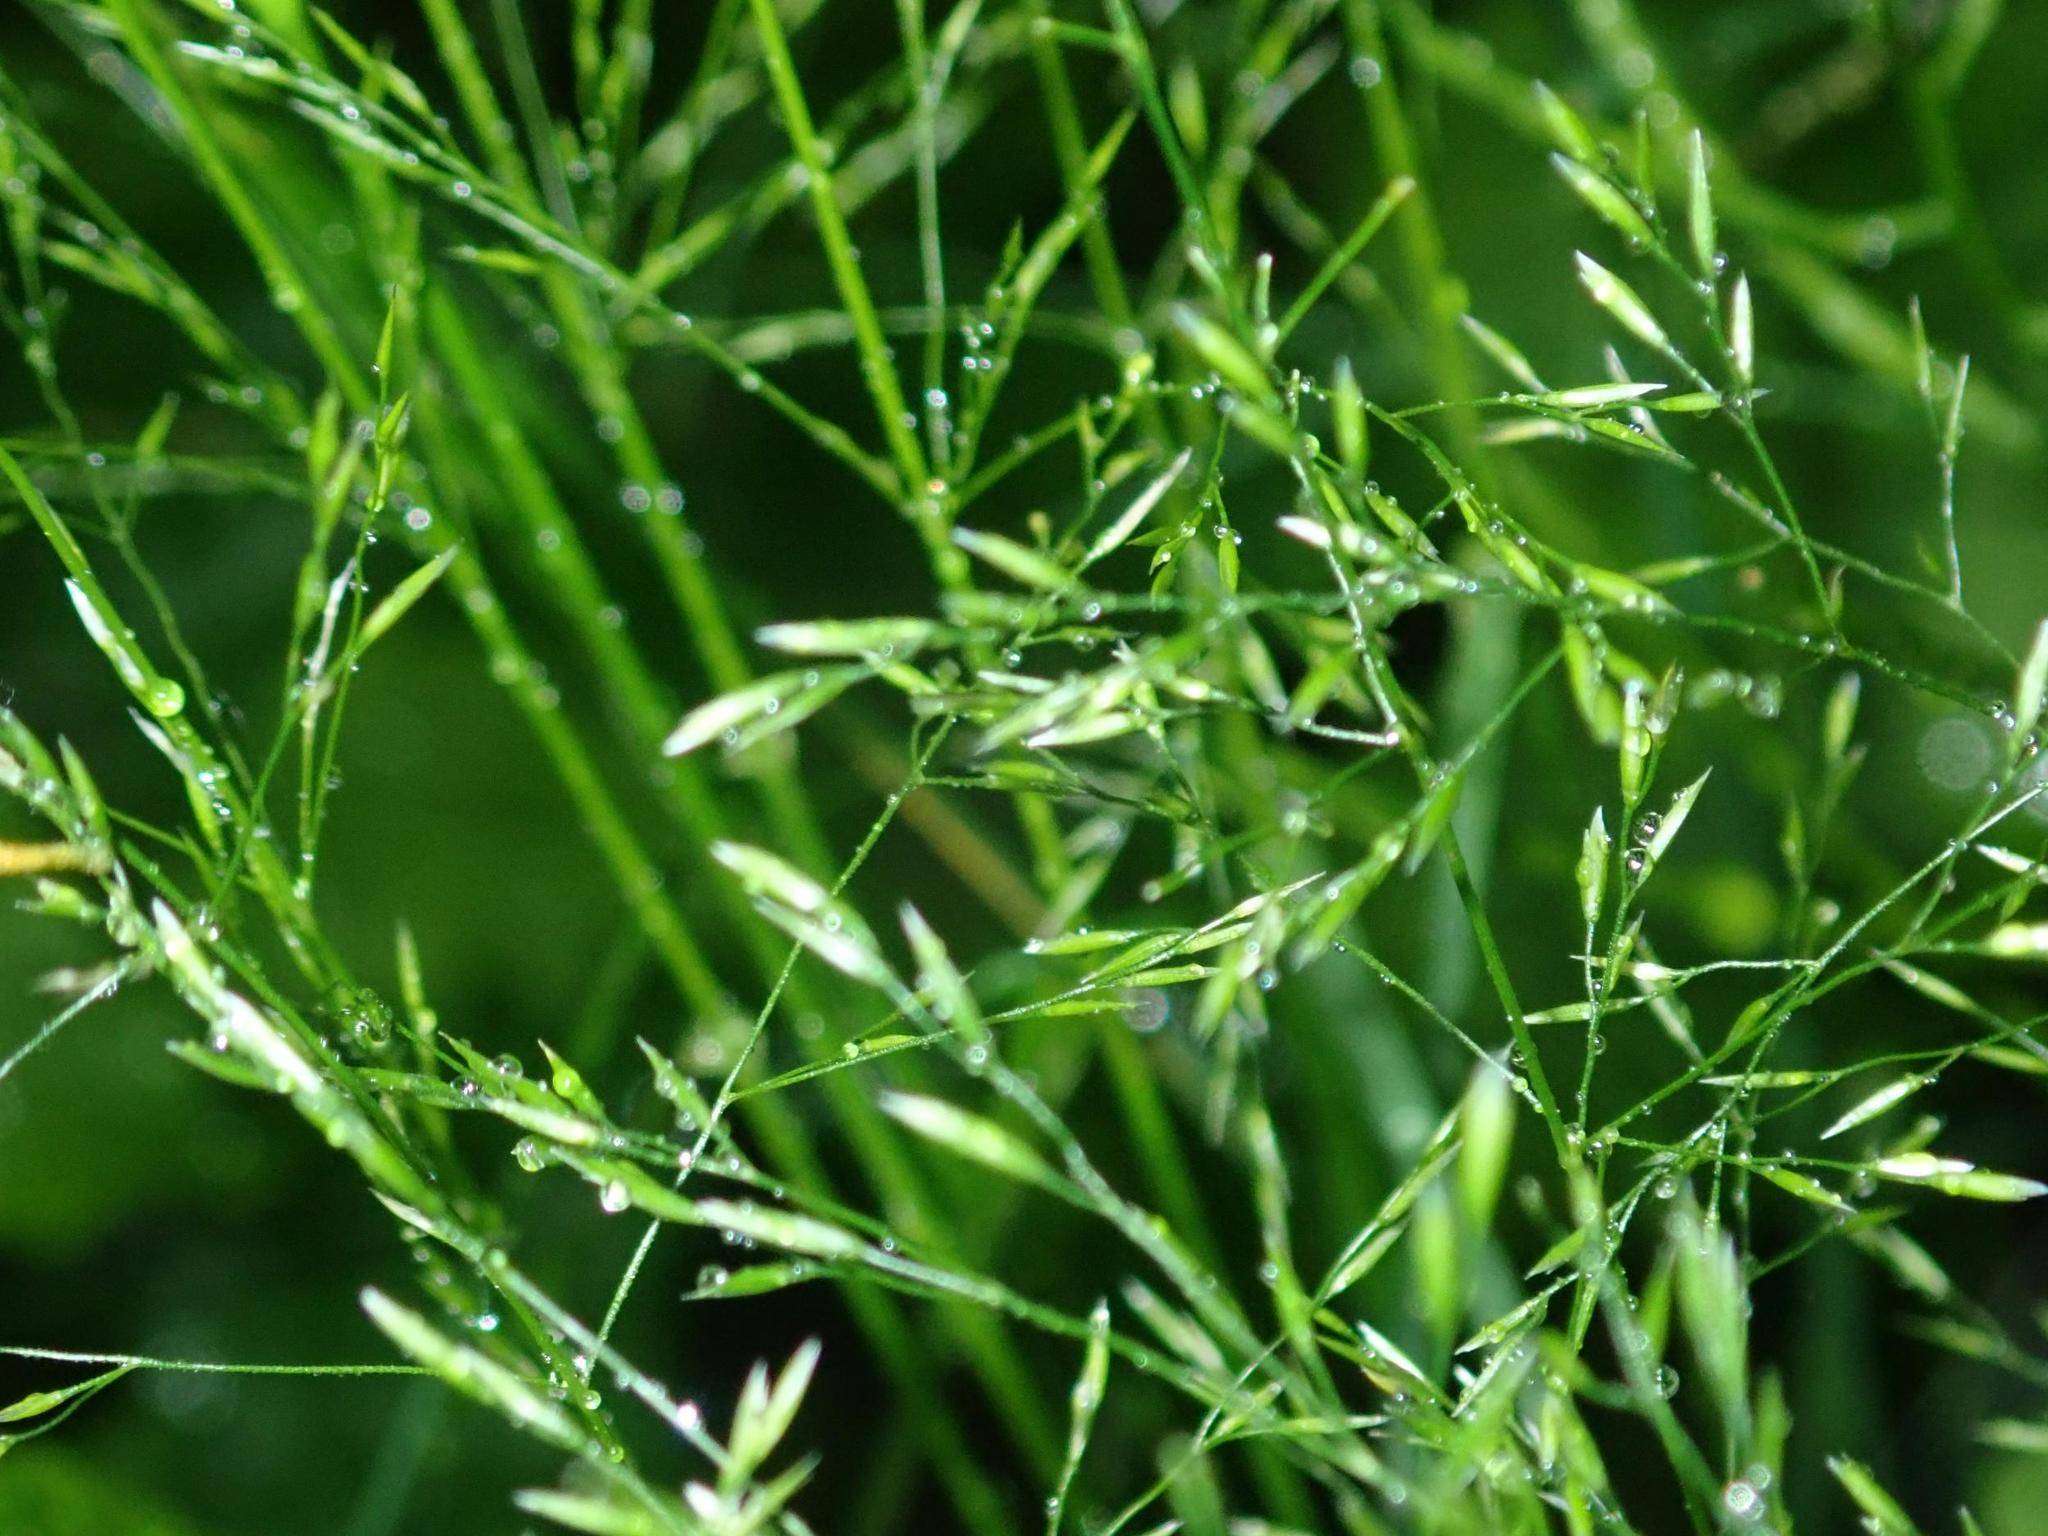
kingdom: Plantae
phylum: Tracheophyta
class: Liliopsida
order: Poales
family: Poaceae
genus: Poa
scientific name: Poa nemoralis
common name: Wood bluegrass
